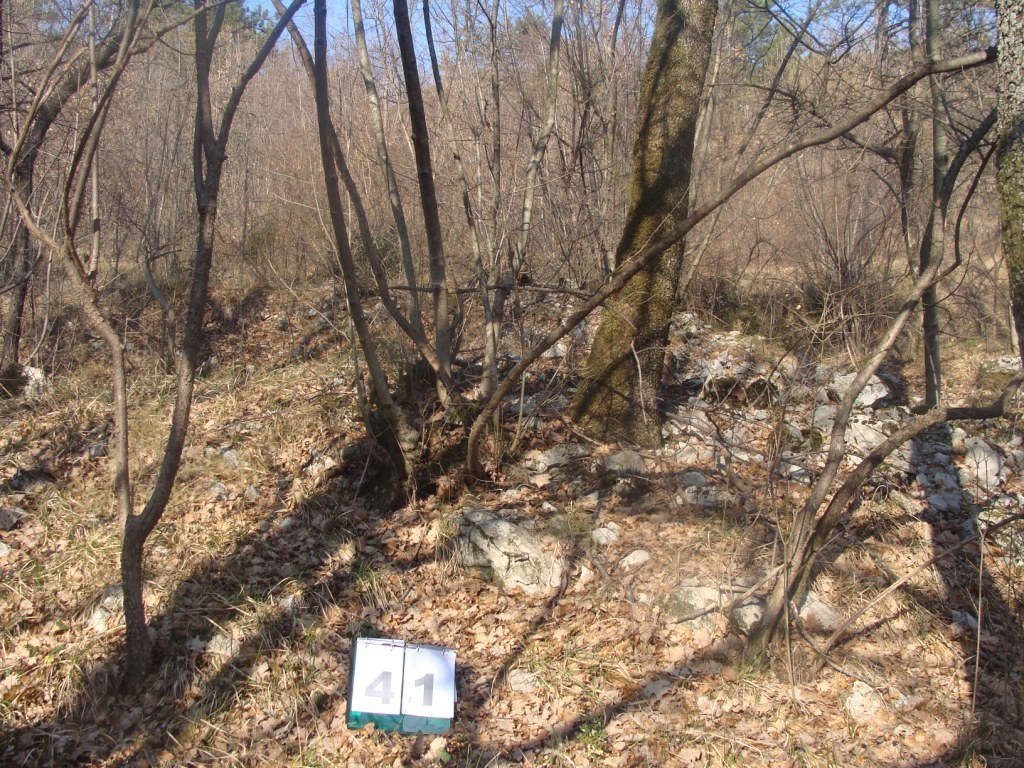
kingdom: Plantae
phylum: Tracheophyta
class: Magnoliopsida
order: Cornales
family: Cornaceae
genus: Cornus
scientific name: Cornus mas
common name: Cornelian-cherry
